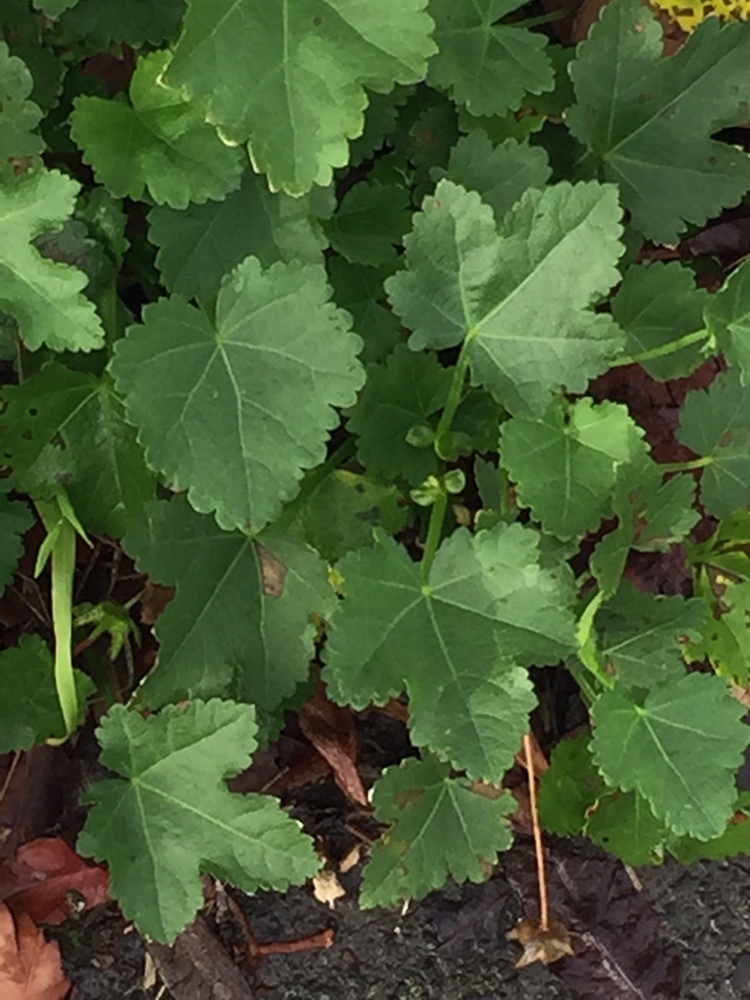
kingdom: Plantae
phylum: Tracheophyta
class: Magnoliopsida
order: Malvales
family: Malvaceae
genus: Modiolastrum
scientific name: Modiolastrum lateritium
